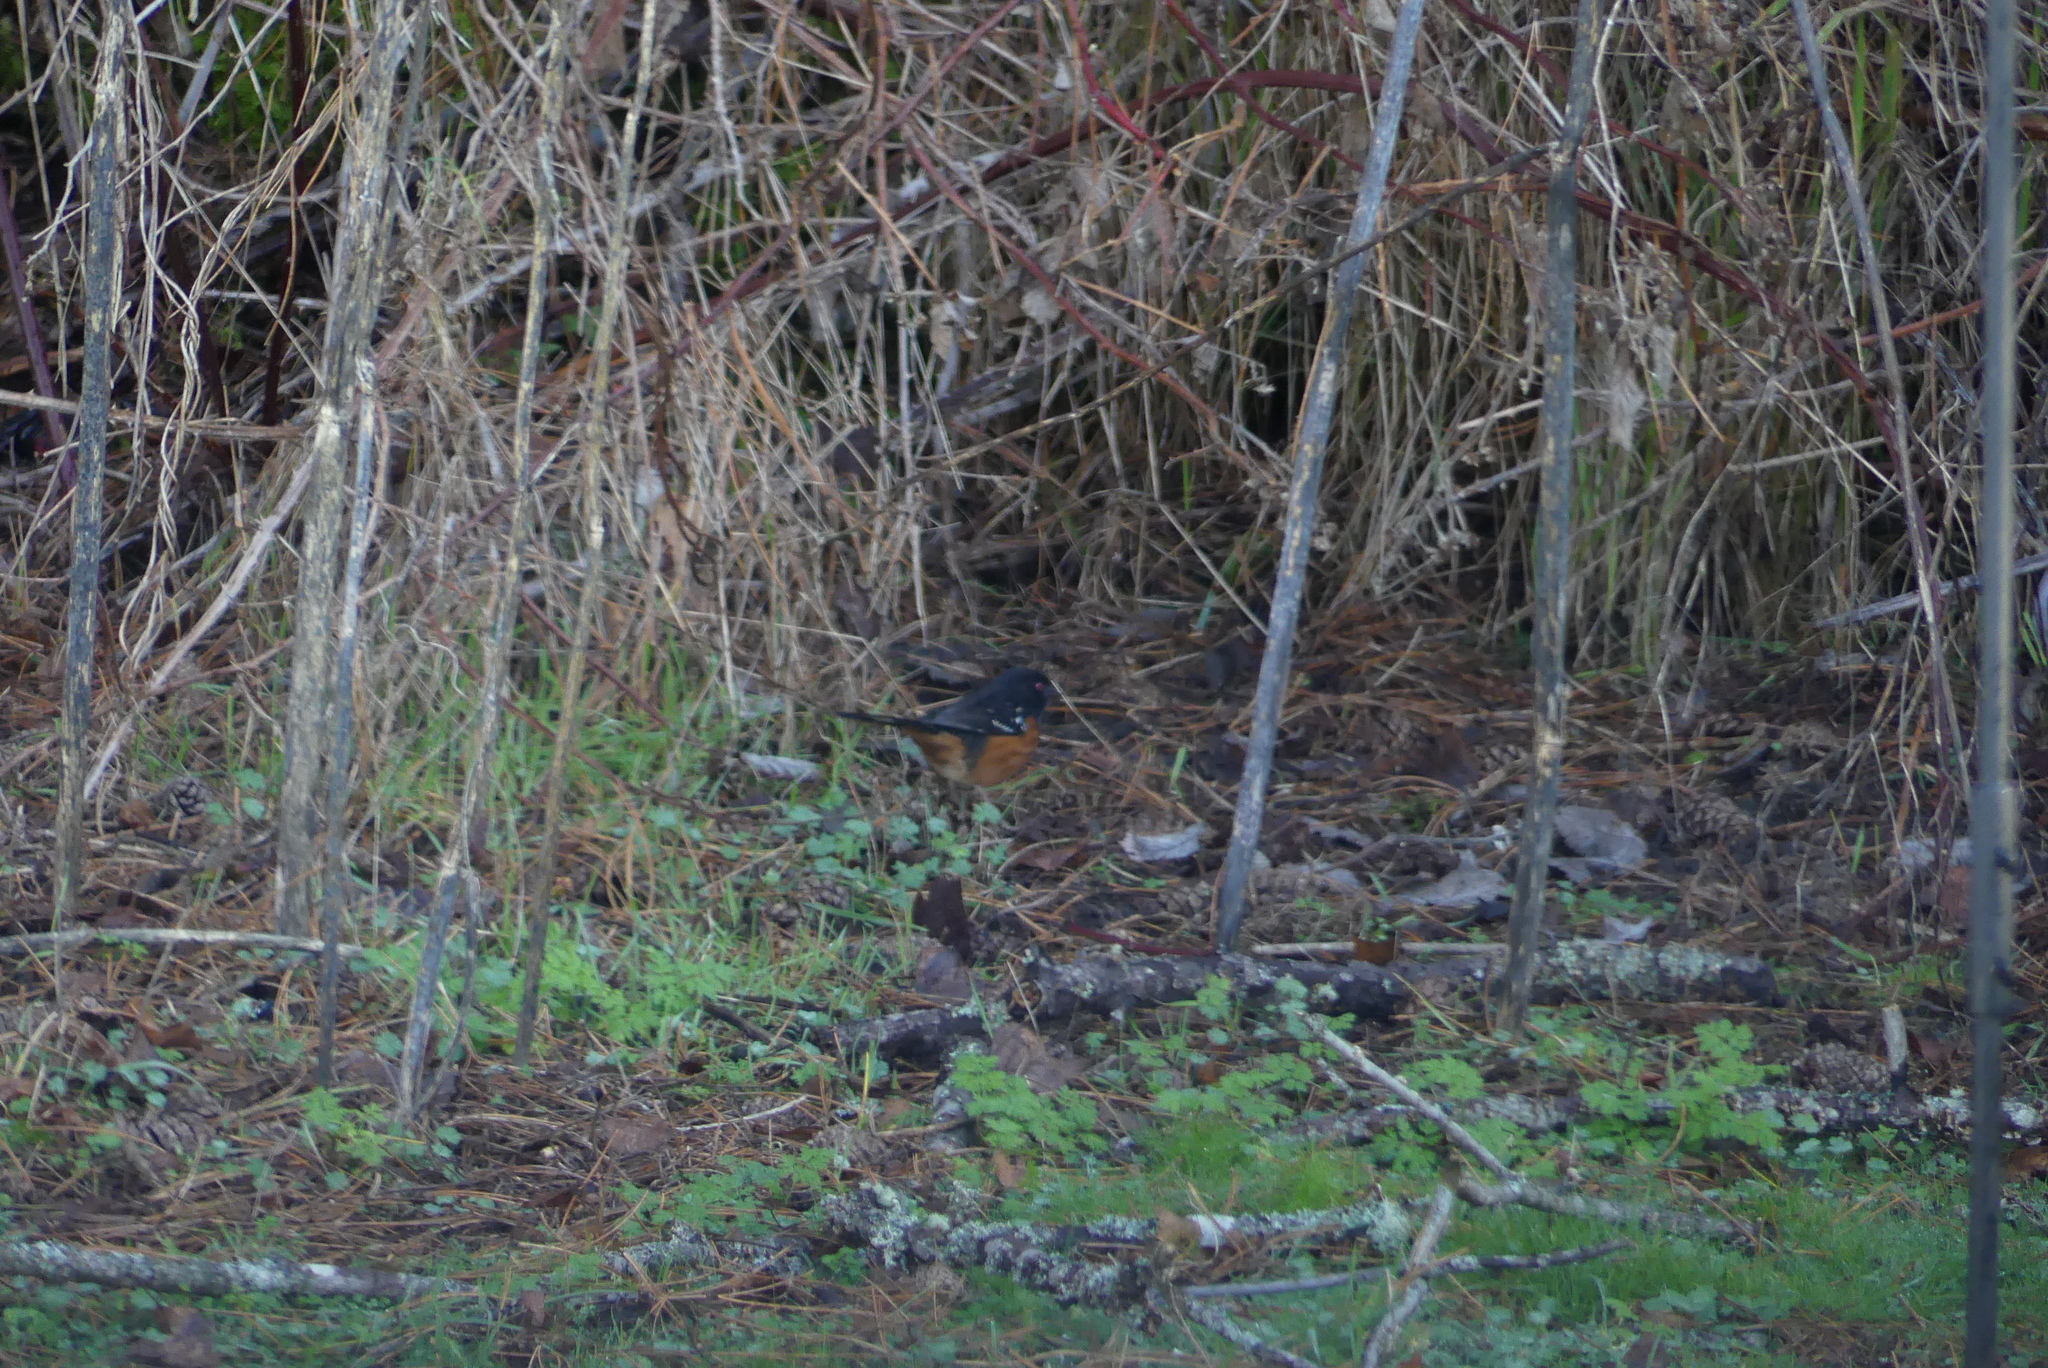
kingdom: Animalia
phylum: Chordata
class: Aves
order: Passeriformes
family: Passerellidae
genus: Pipilo
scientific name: Pipilo maculatus
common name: Spotted towhee
